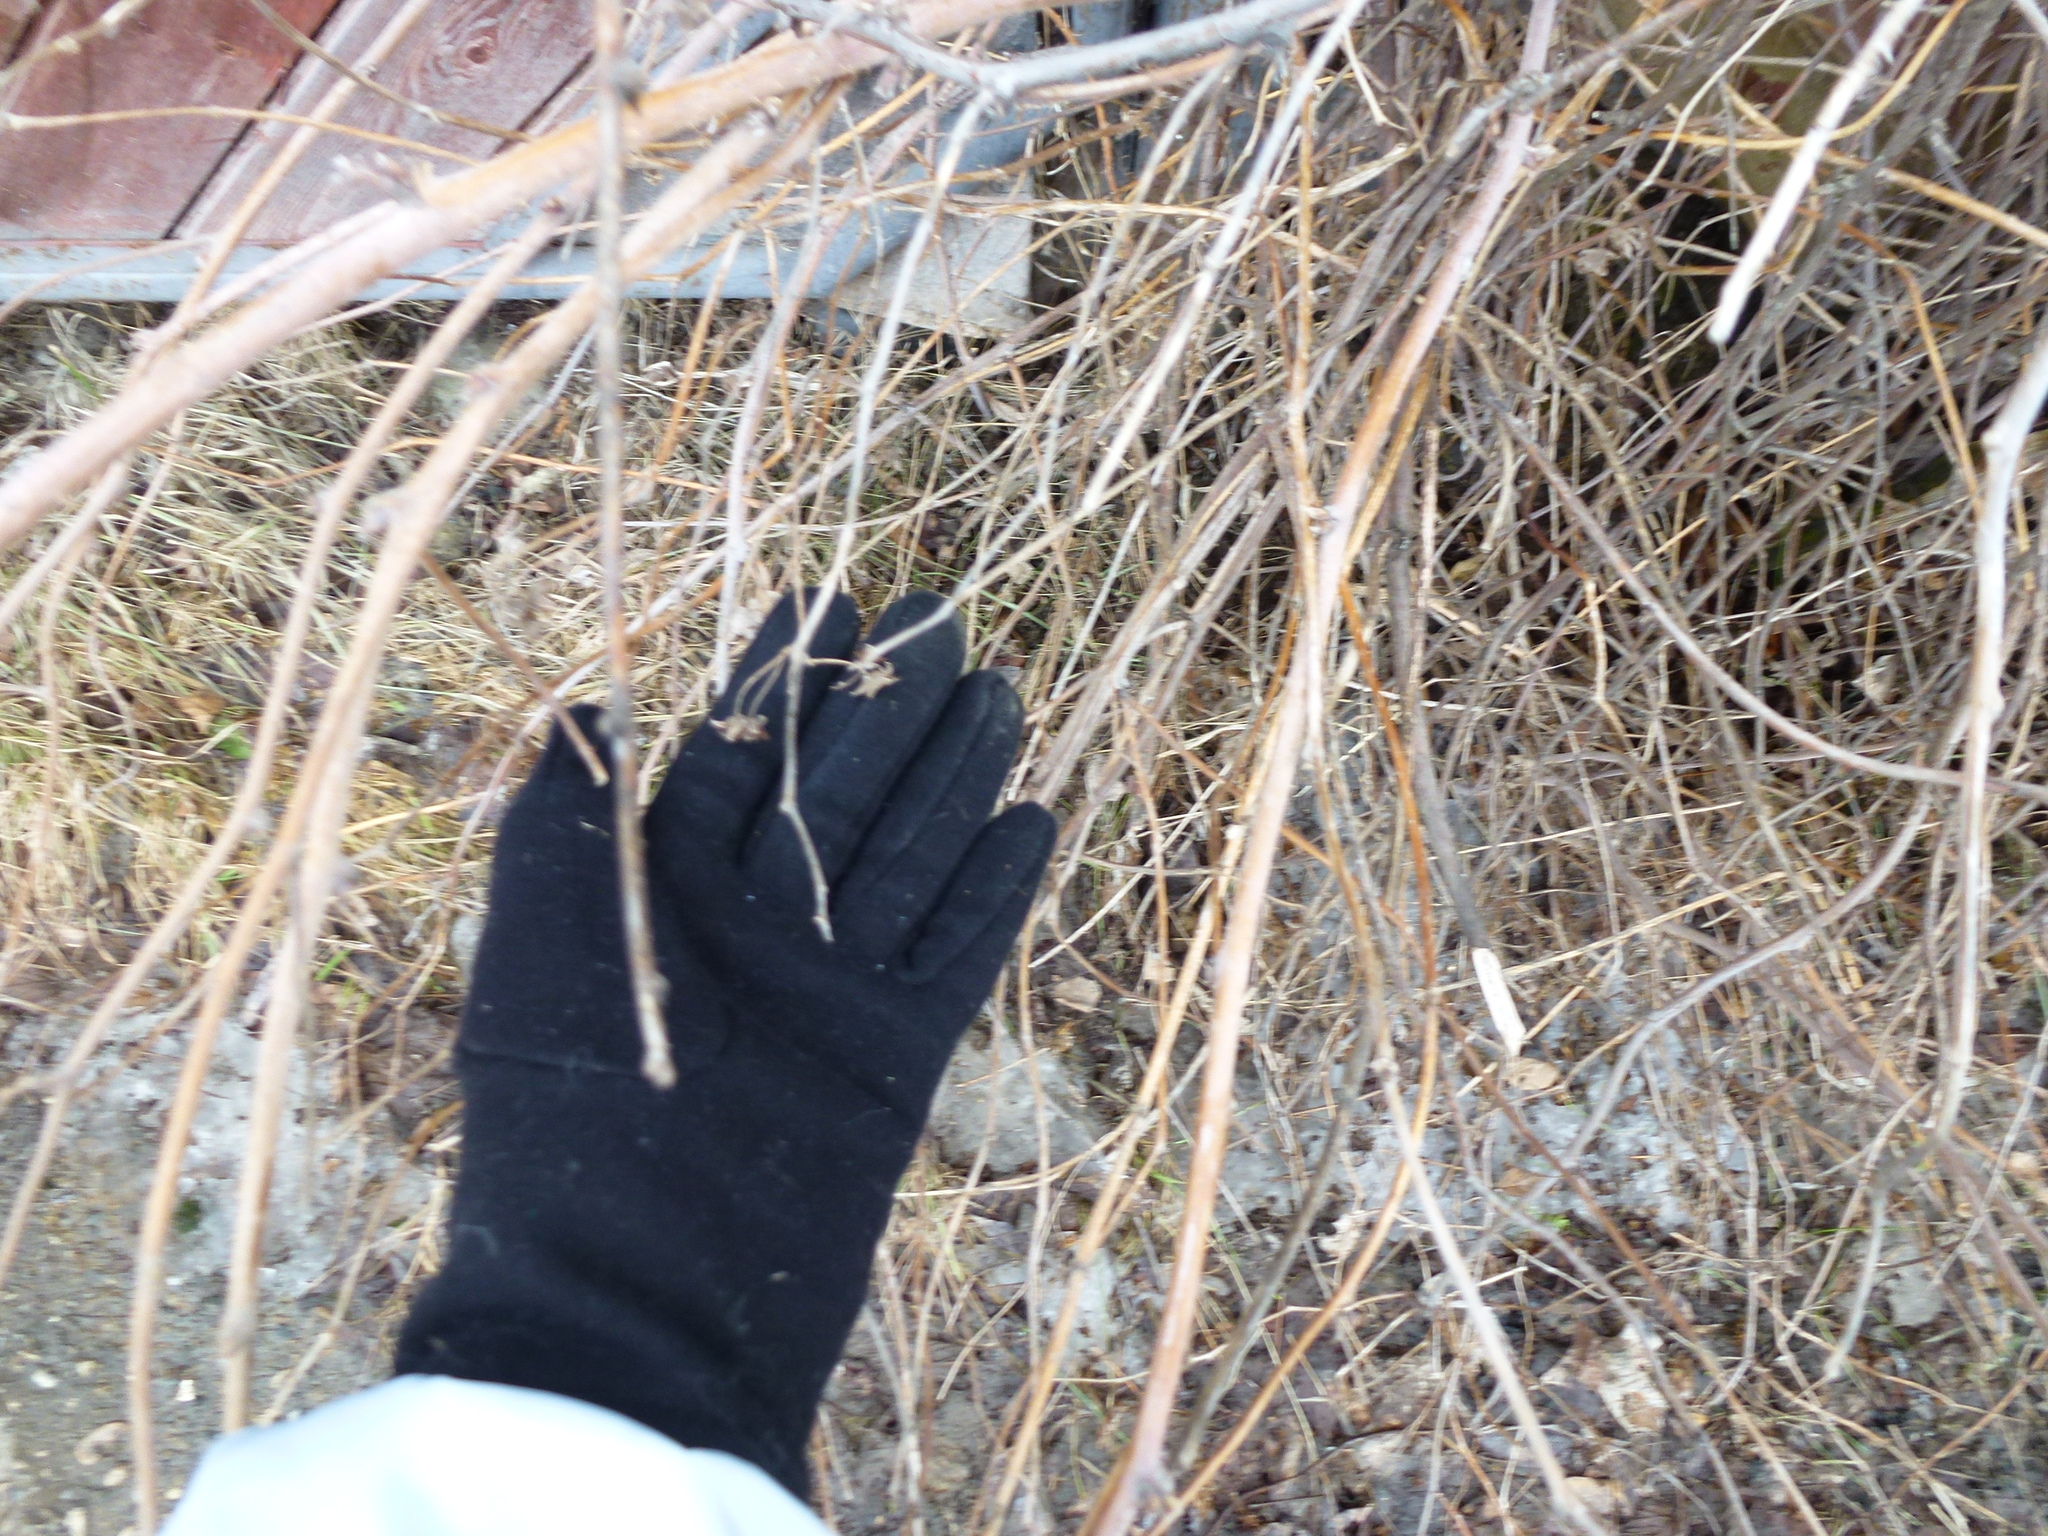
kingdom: Plantae
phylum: Tracheophyta
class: Magnoliopsida
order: Rosales
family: Rosaceae
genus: Rubus
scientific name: Rubus sachalinensis
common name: Red raspberry
